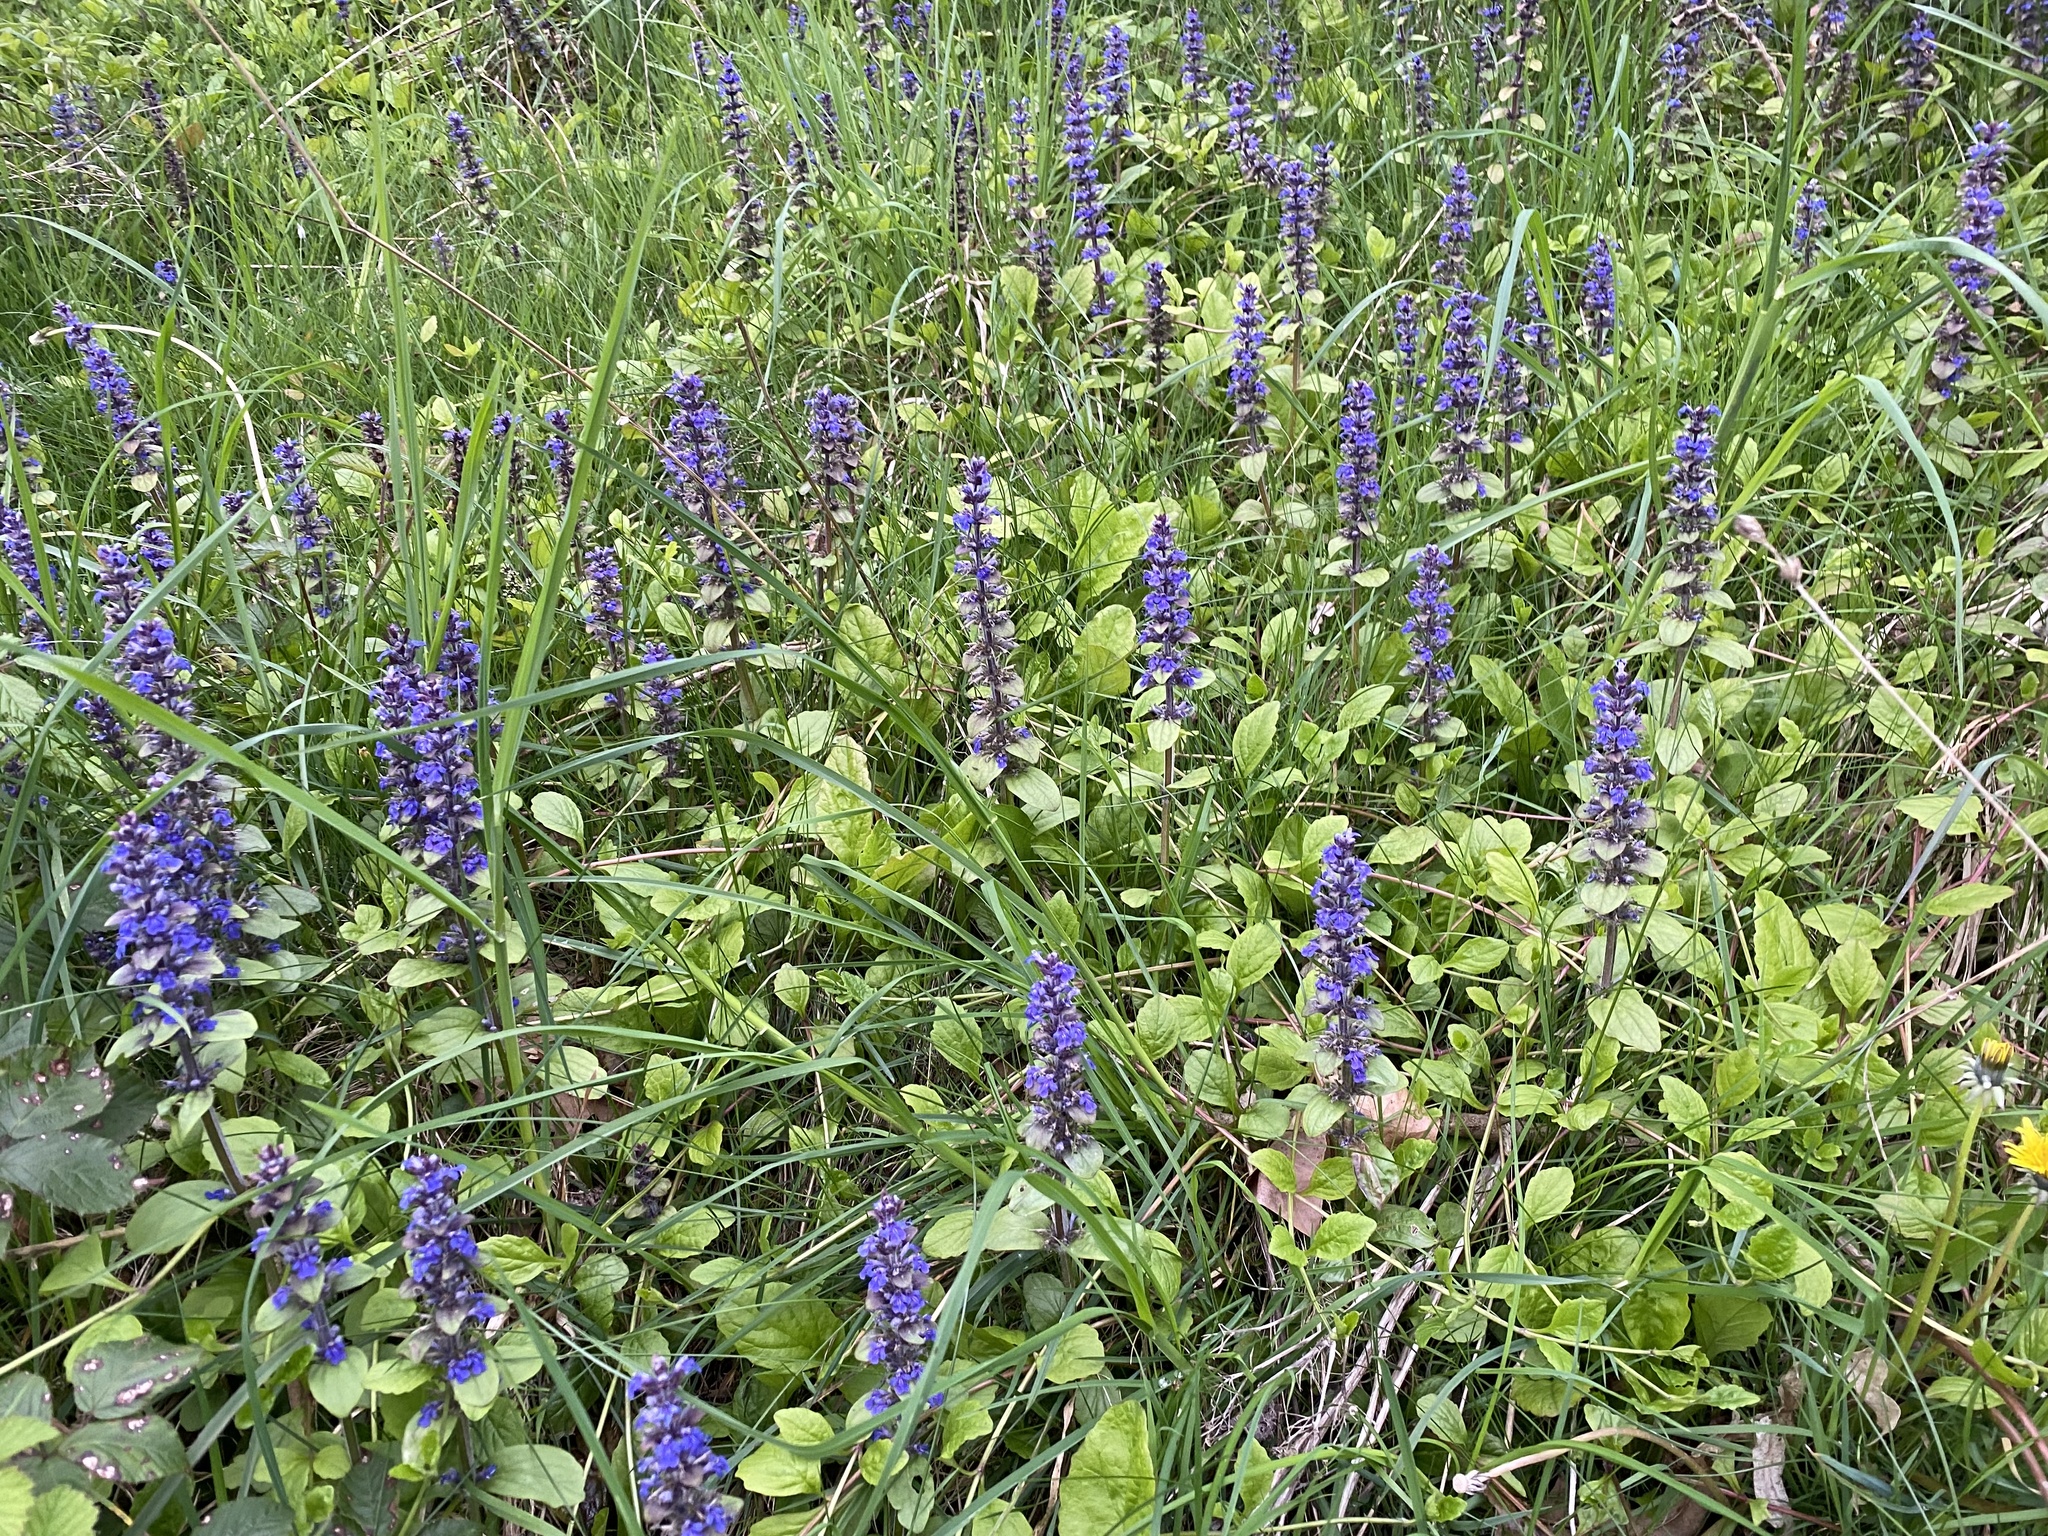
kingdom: Plantae
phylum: Tracheophyta
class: Magnoliopsida
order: Lamiales
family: Lamiaceae
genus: Ajuga
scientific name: Ajuga reptans
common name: Bugle
